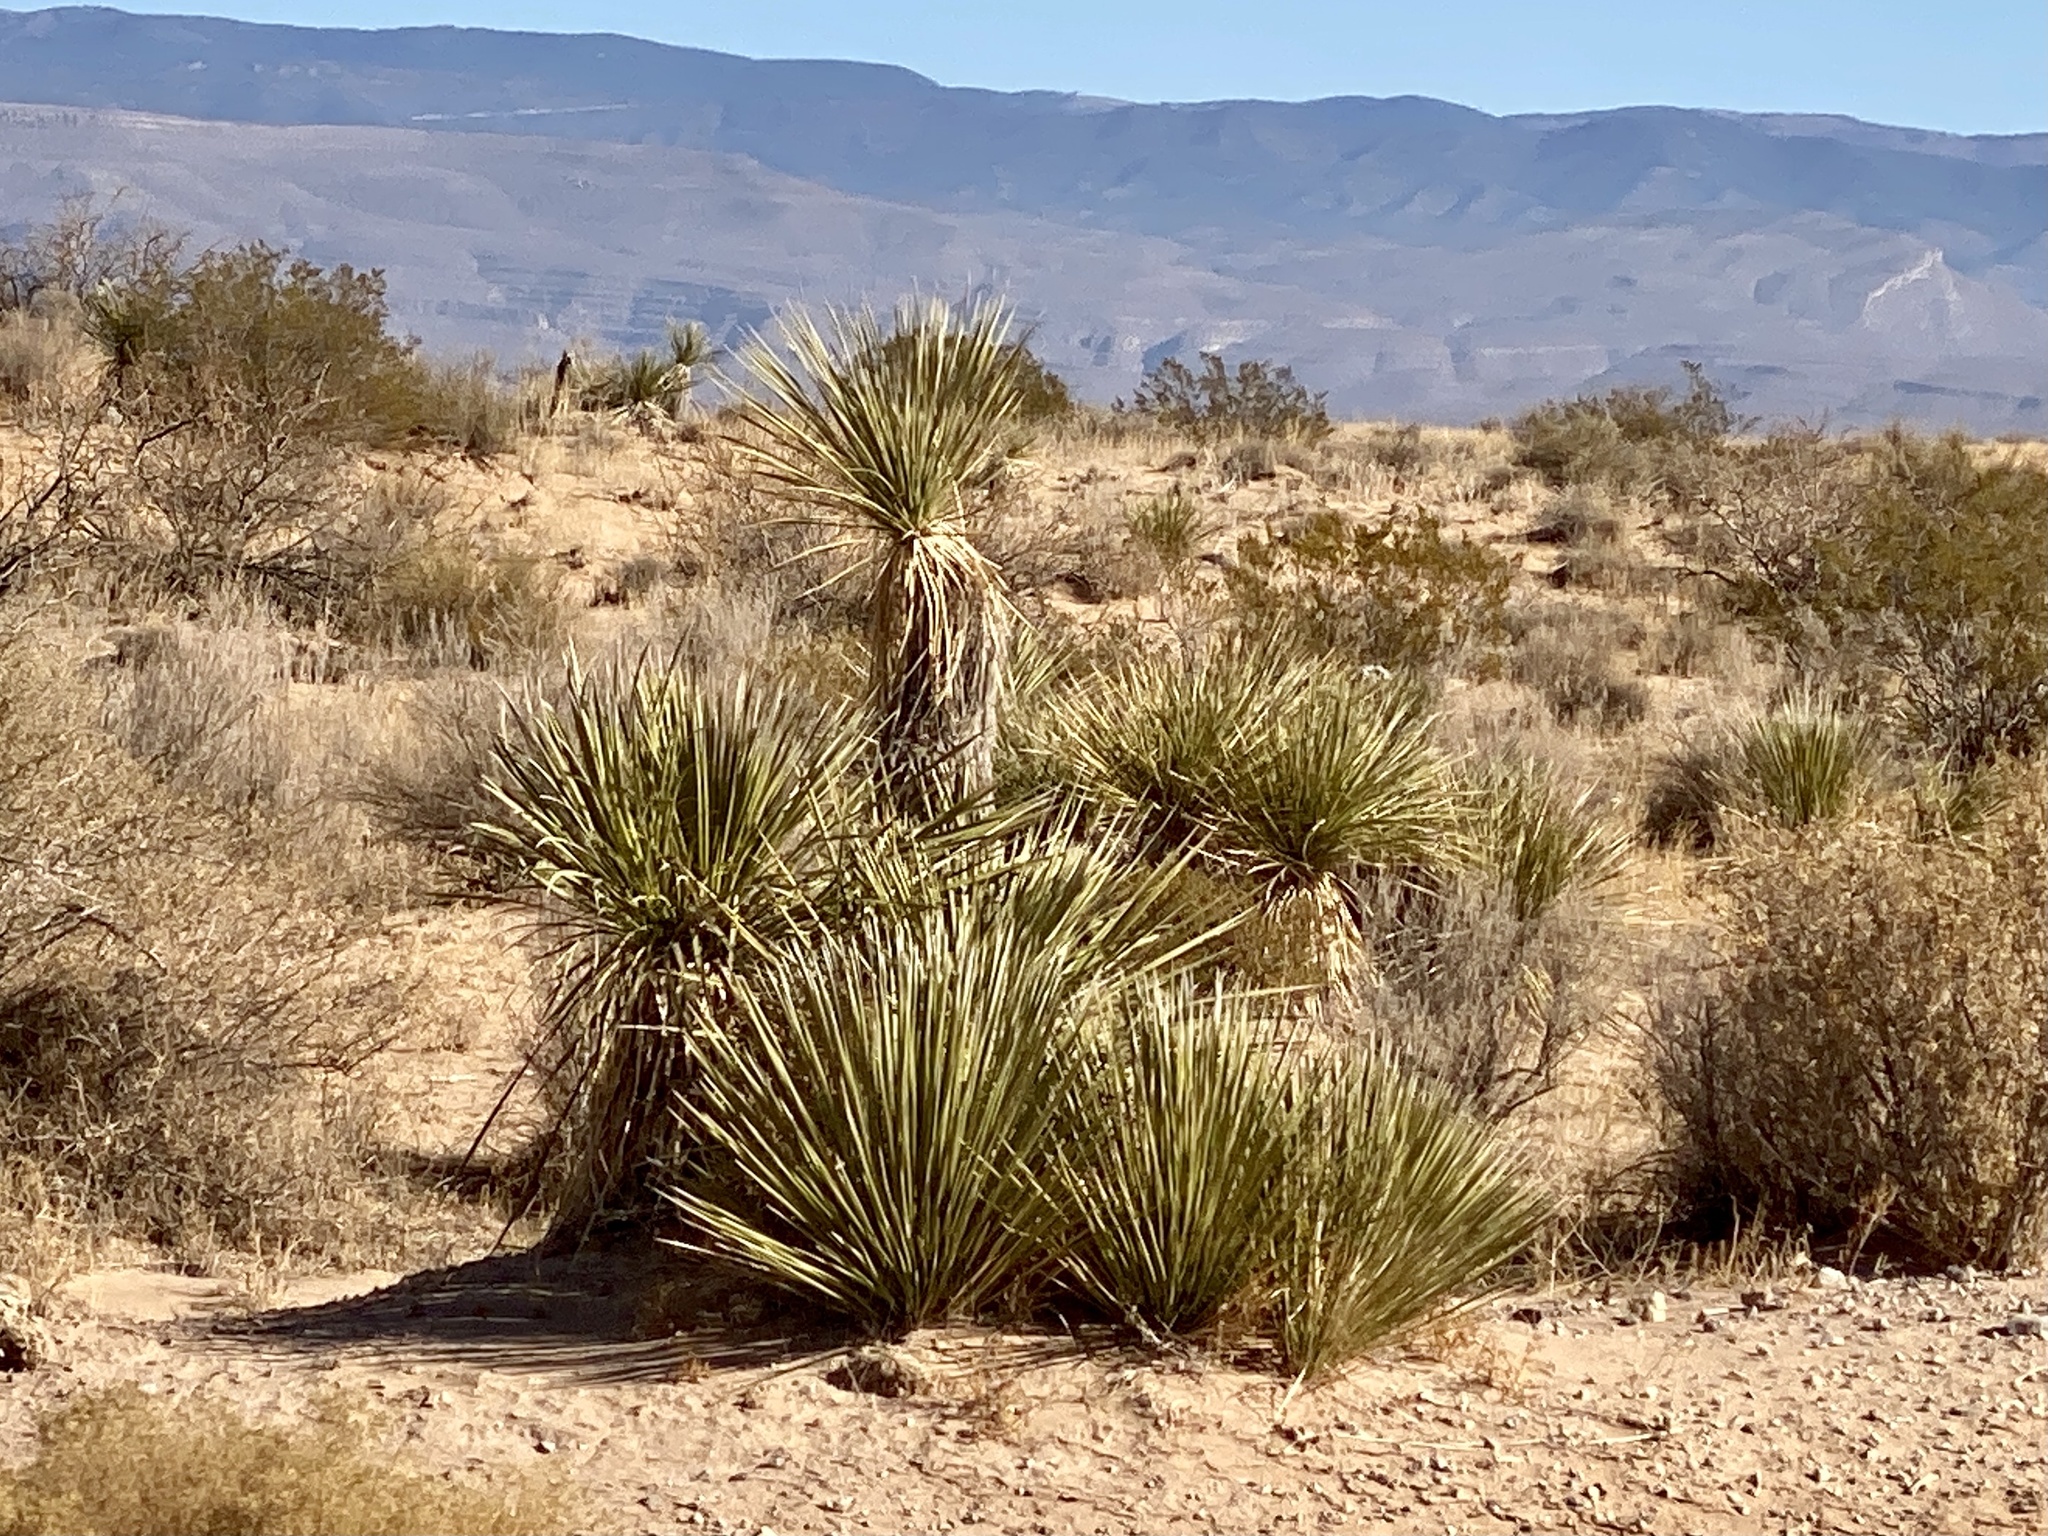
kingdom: Plantae
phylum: Tracheophyta
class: Liliopsida
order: Asparagales
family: Asparagaceae
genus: Yucca
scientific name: Yucca elata
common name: Palmella
